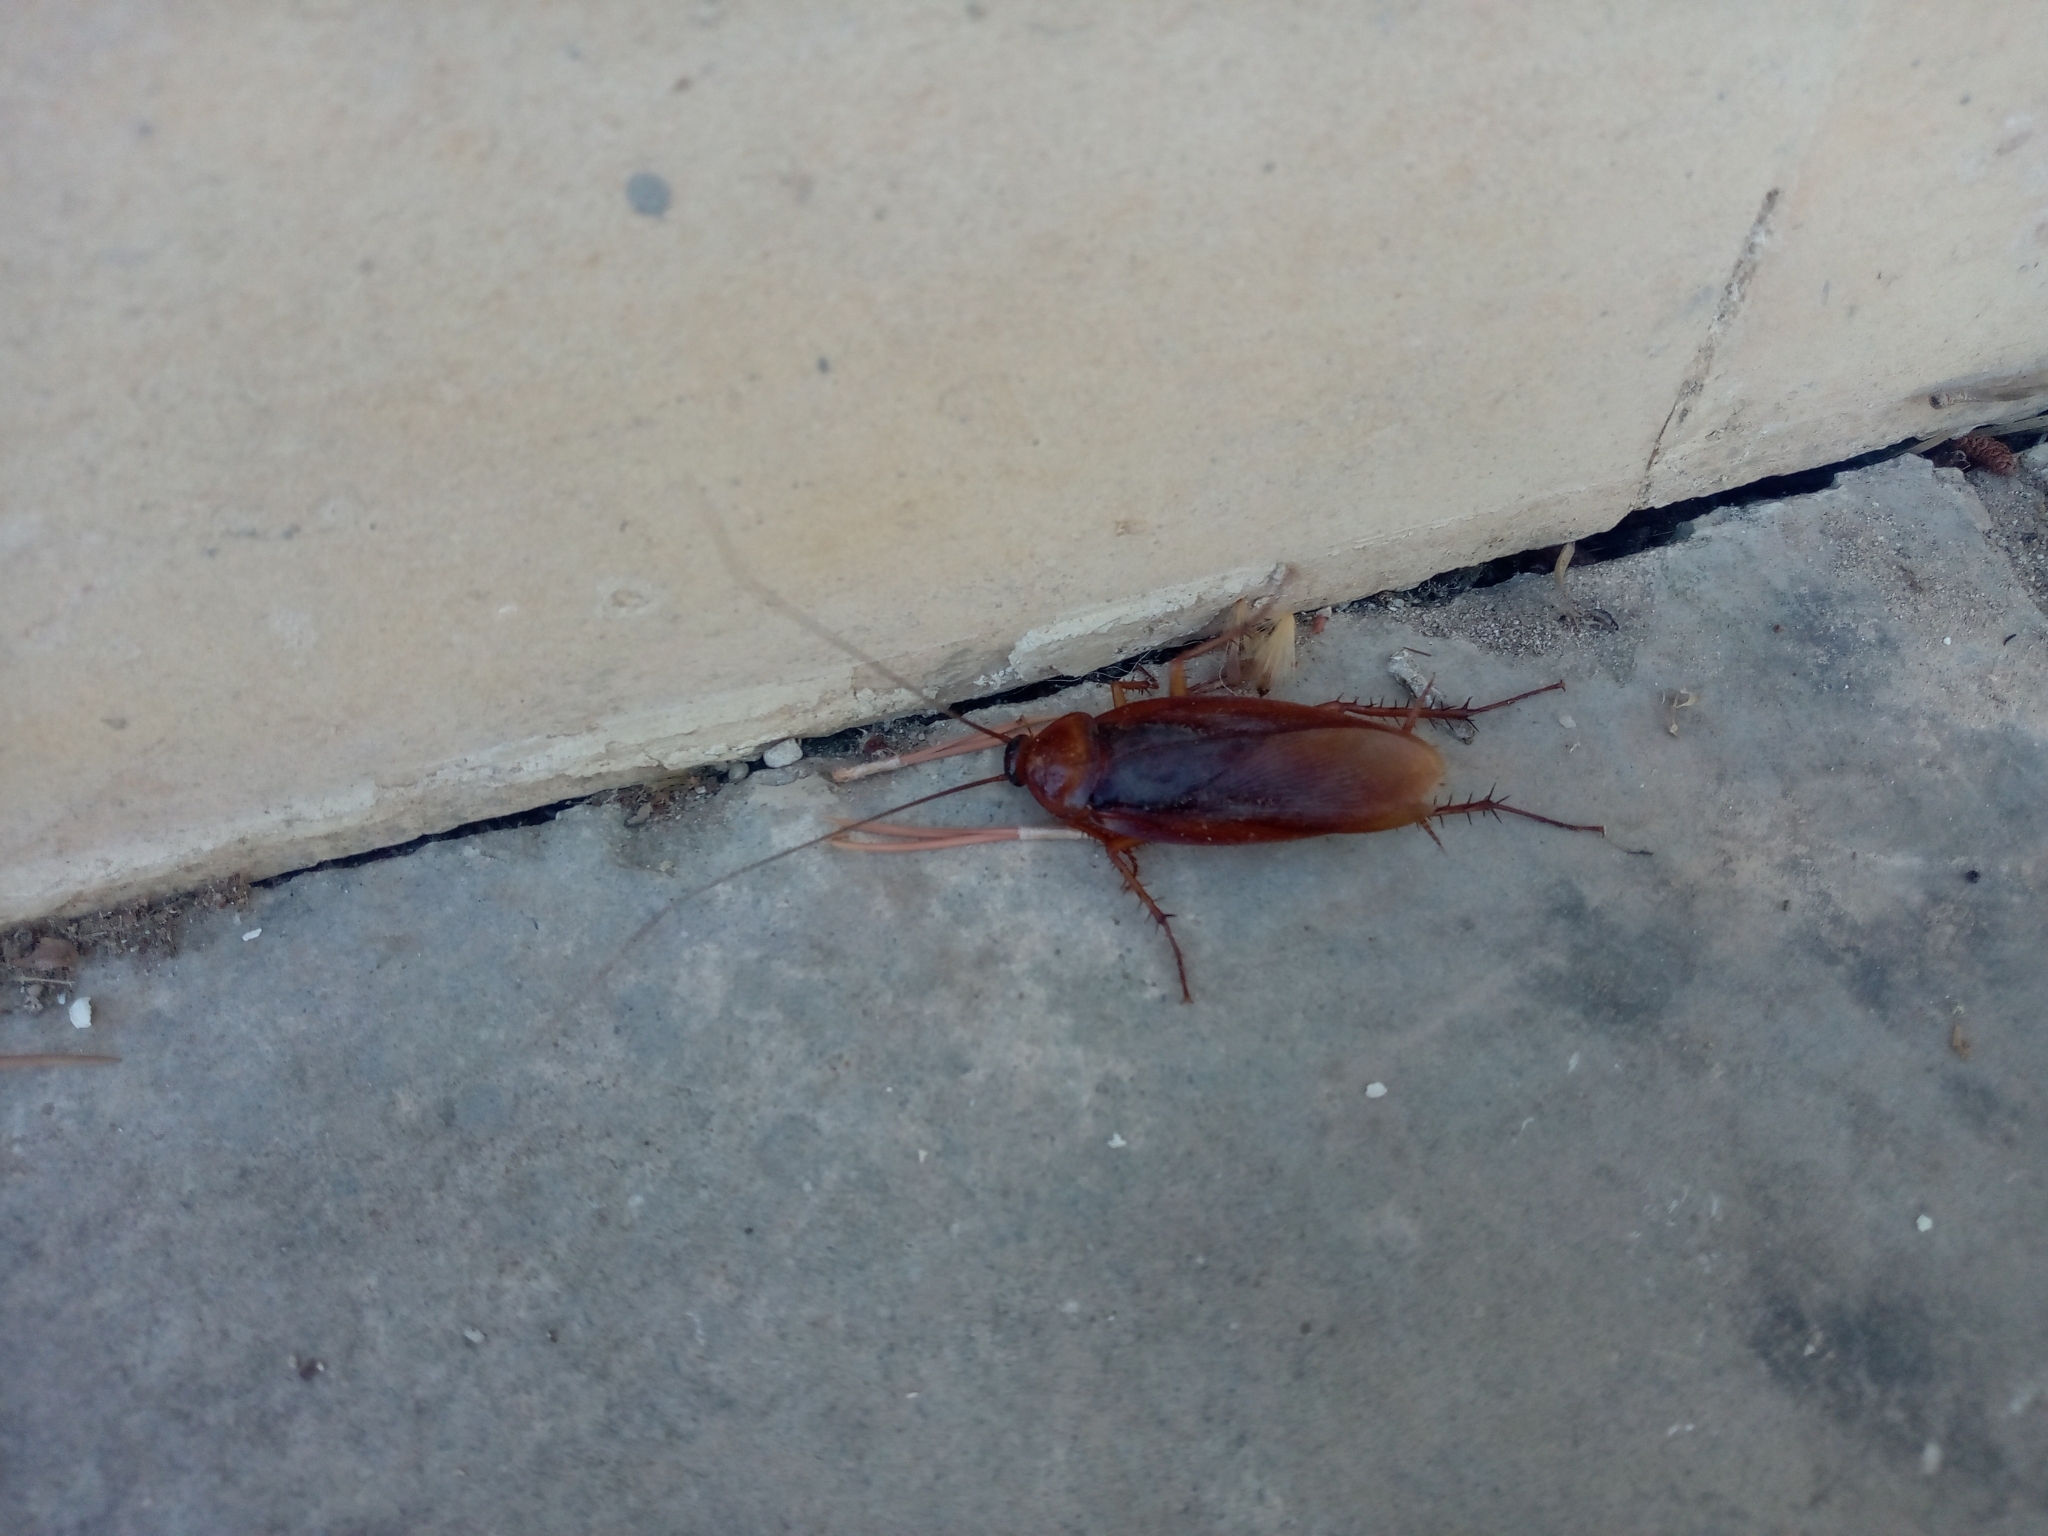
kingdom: Animalia
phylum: Arthropoda
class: Insecta
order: Blattodea
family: Blattidae
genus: Periplaneta
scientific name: Periplaneta americana
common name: American cockroach
